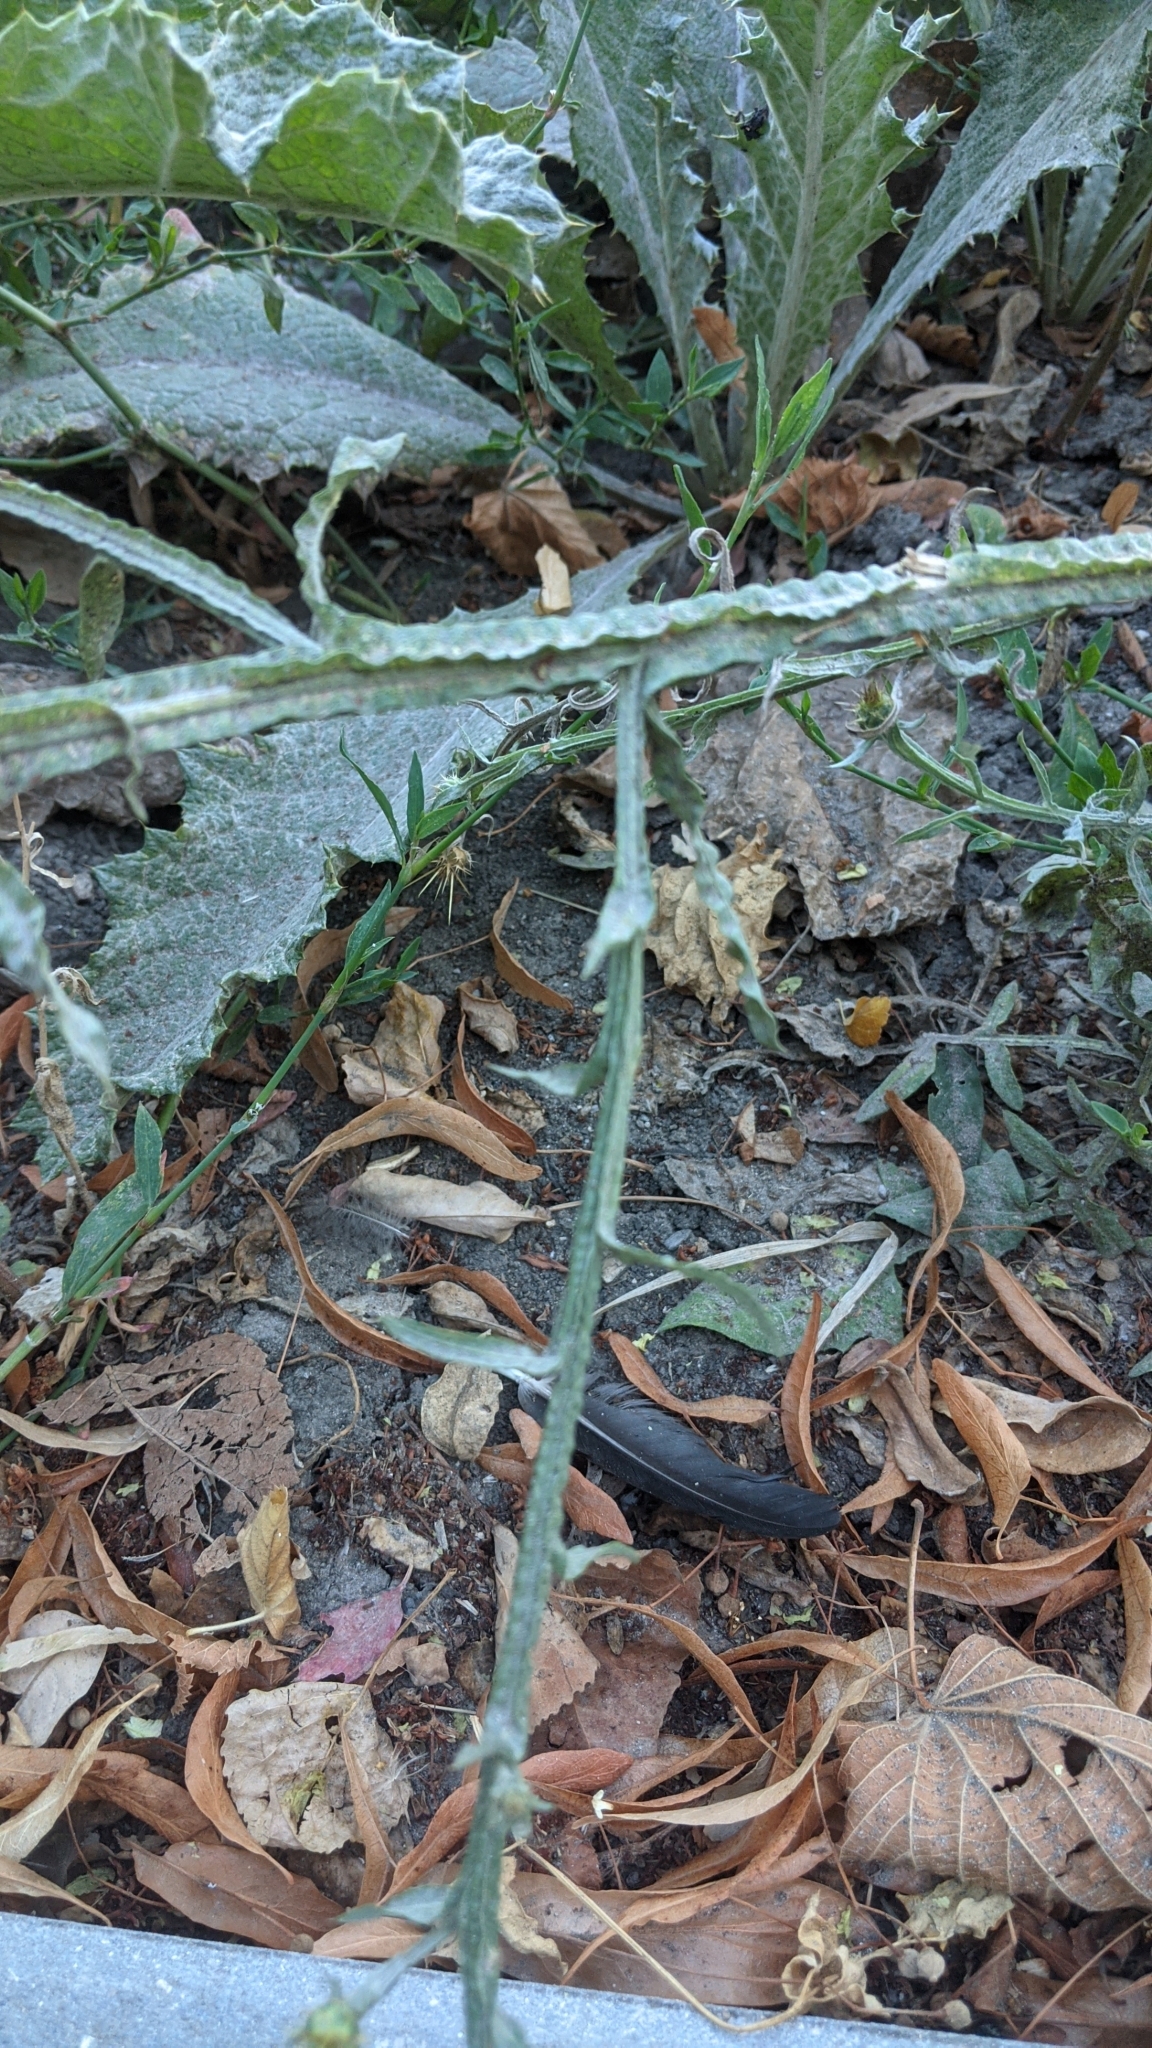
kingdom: Plantae
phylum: Tracheophyta
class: Magnoliopsida
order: Asterales
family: Asteraceae
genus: Centaurea
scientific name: Centaurea solstitialis
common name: Yellow star-thistle
